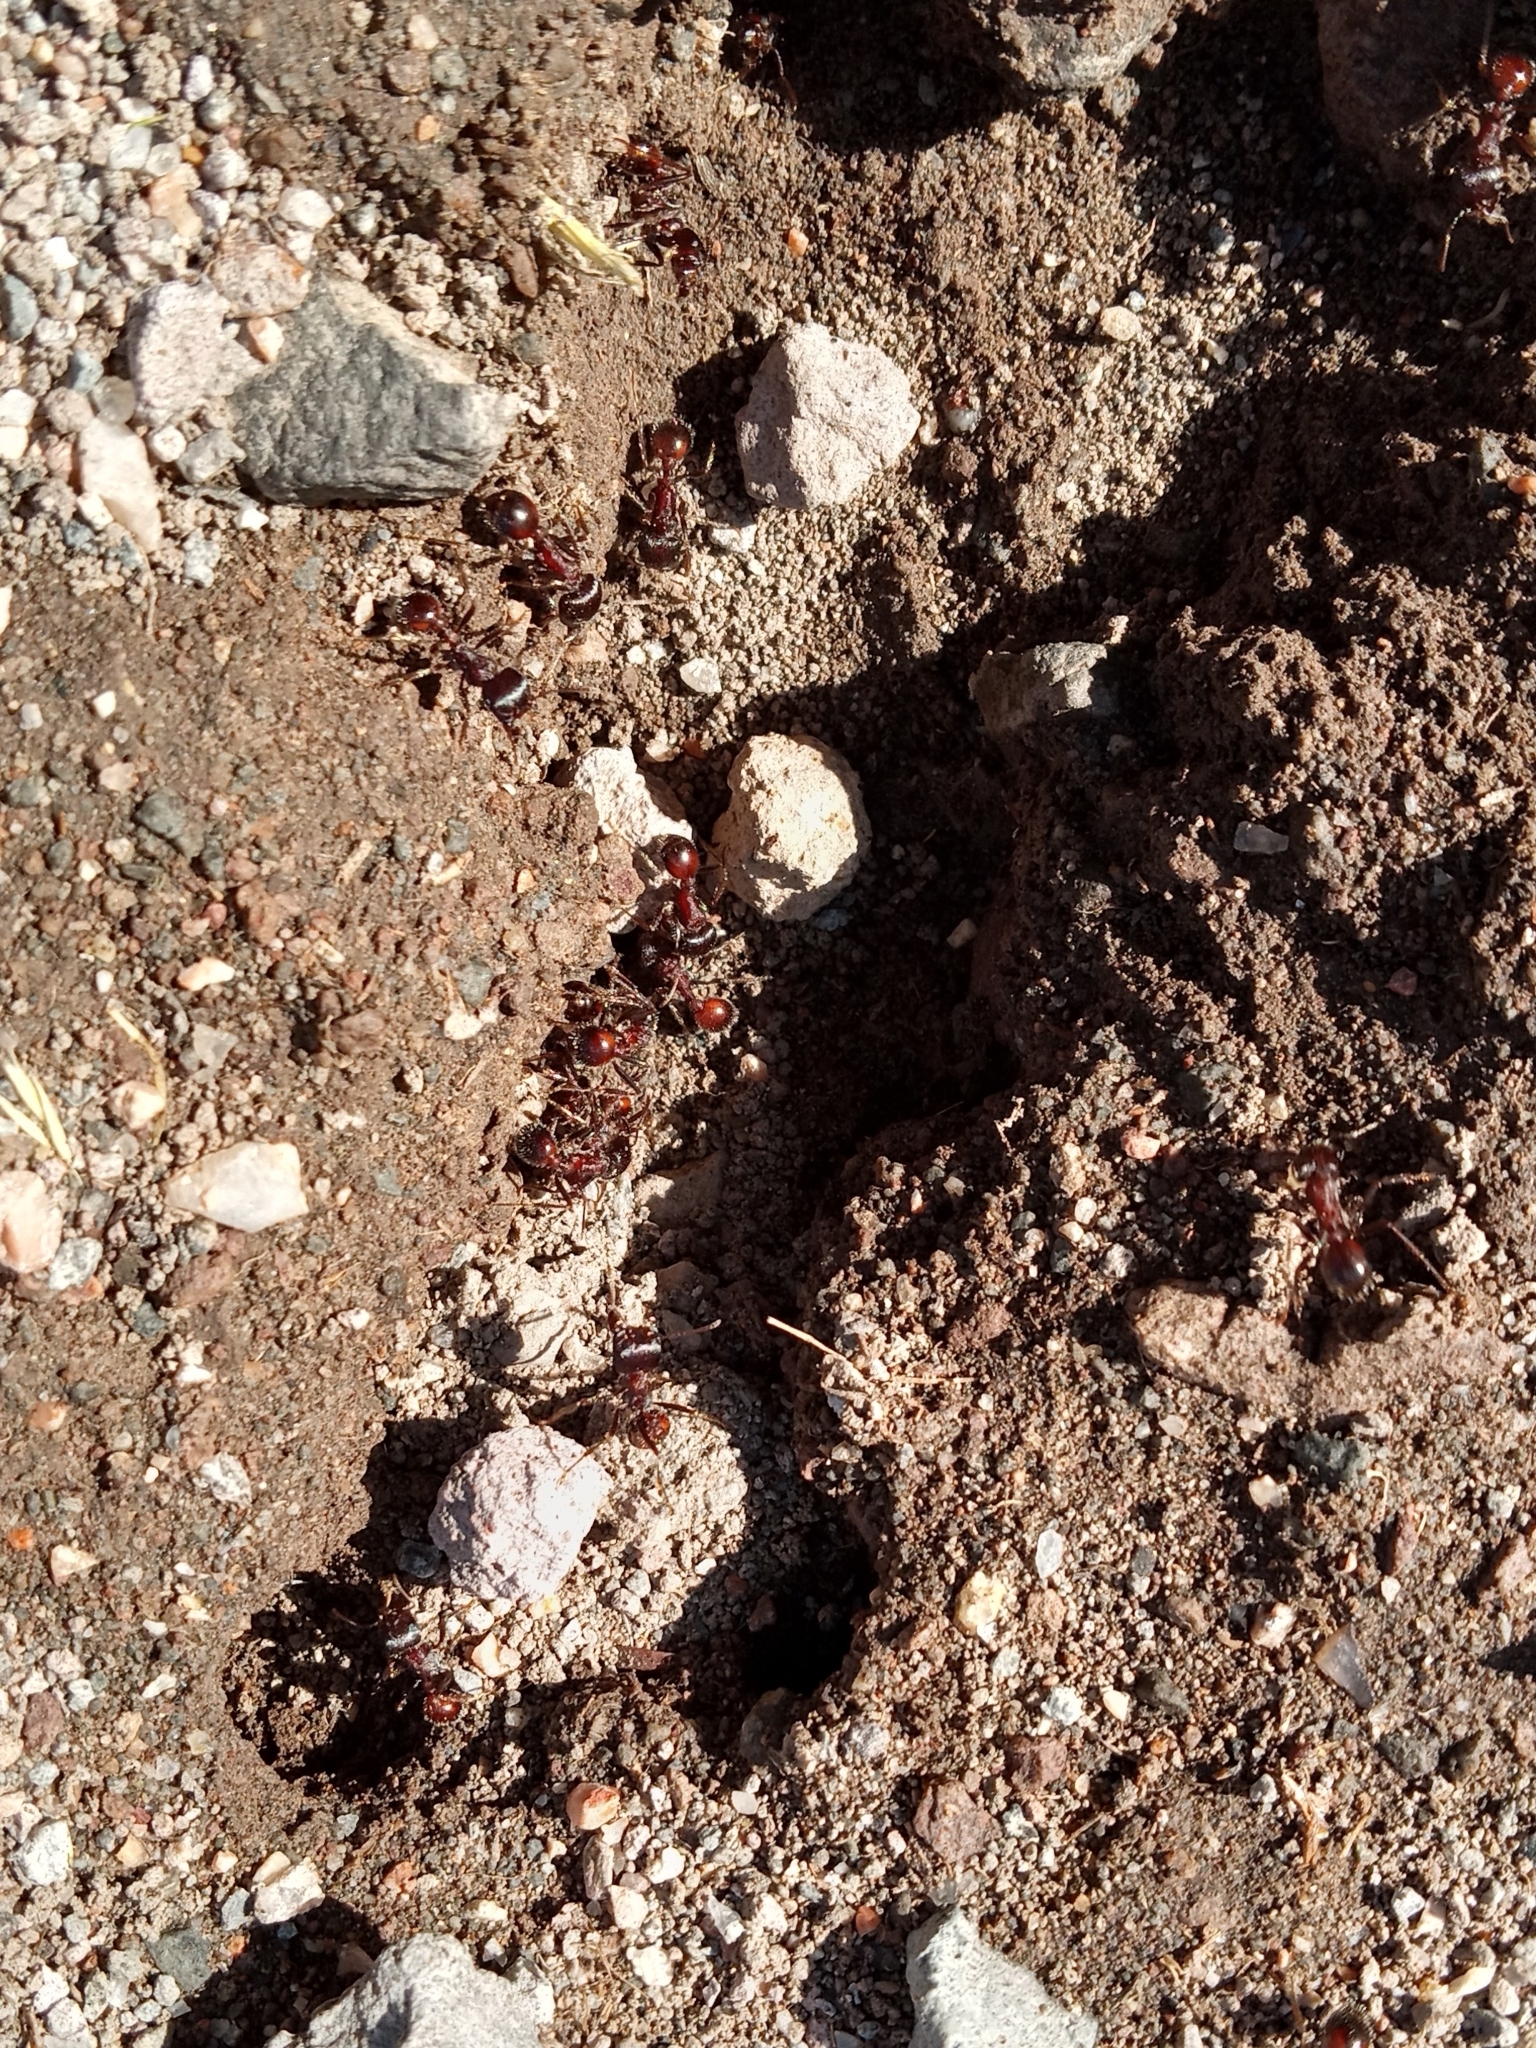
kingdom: Animalia
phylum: Arthropoda
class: Insecta
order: Hymenoptera
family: Formicidae
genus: Pogonomyrmex
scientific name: Pogonomyrmex rugosus
